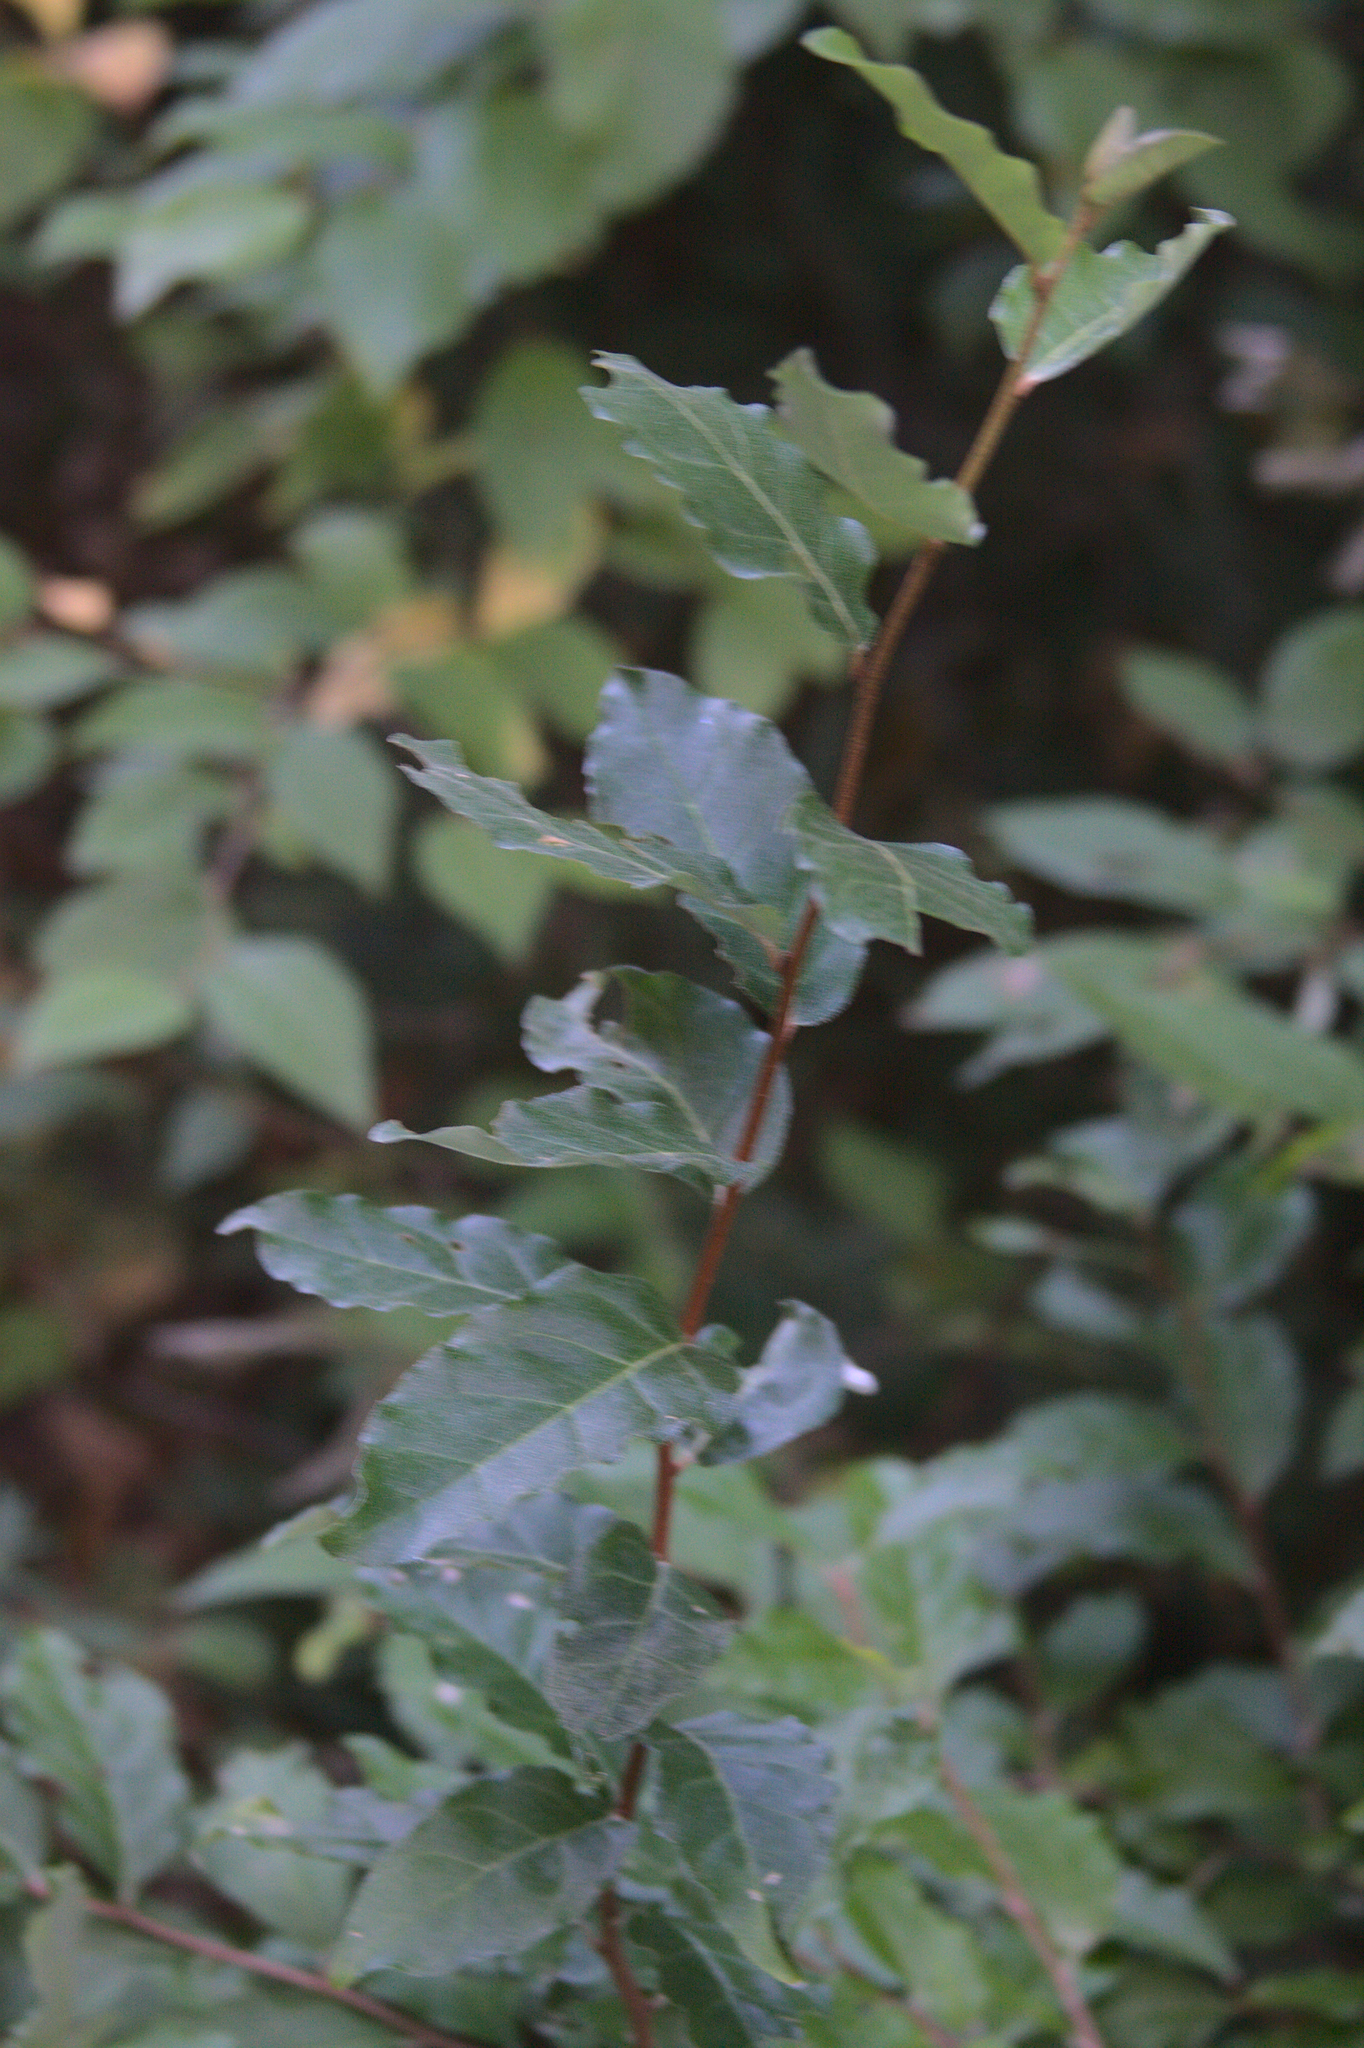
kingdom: Plantae
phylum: Tracheophyta
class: Magnoliopsida
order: Rosales
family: Elaeagnaceae
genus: Elaeagnus
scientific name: Elaeagnus umbellata
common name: Autumn olive
